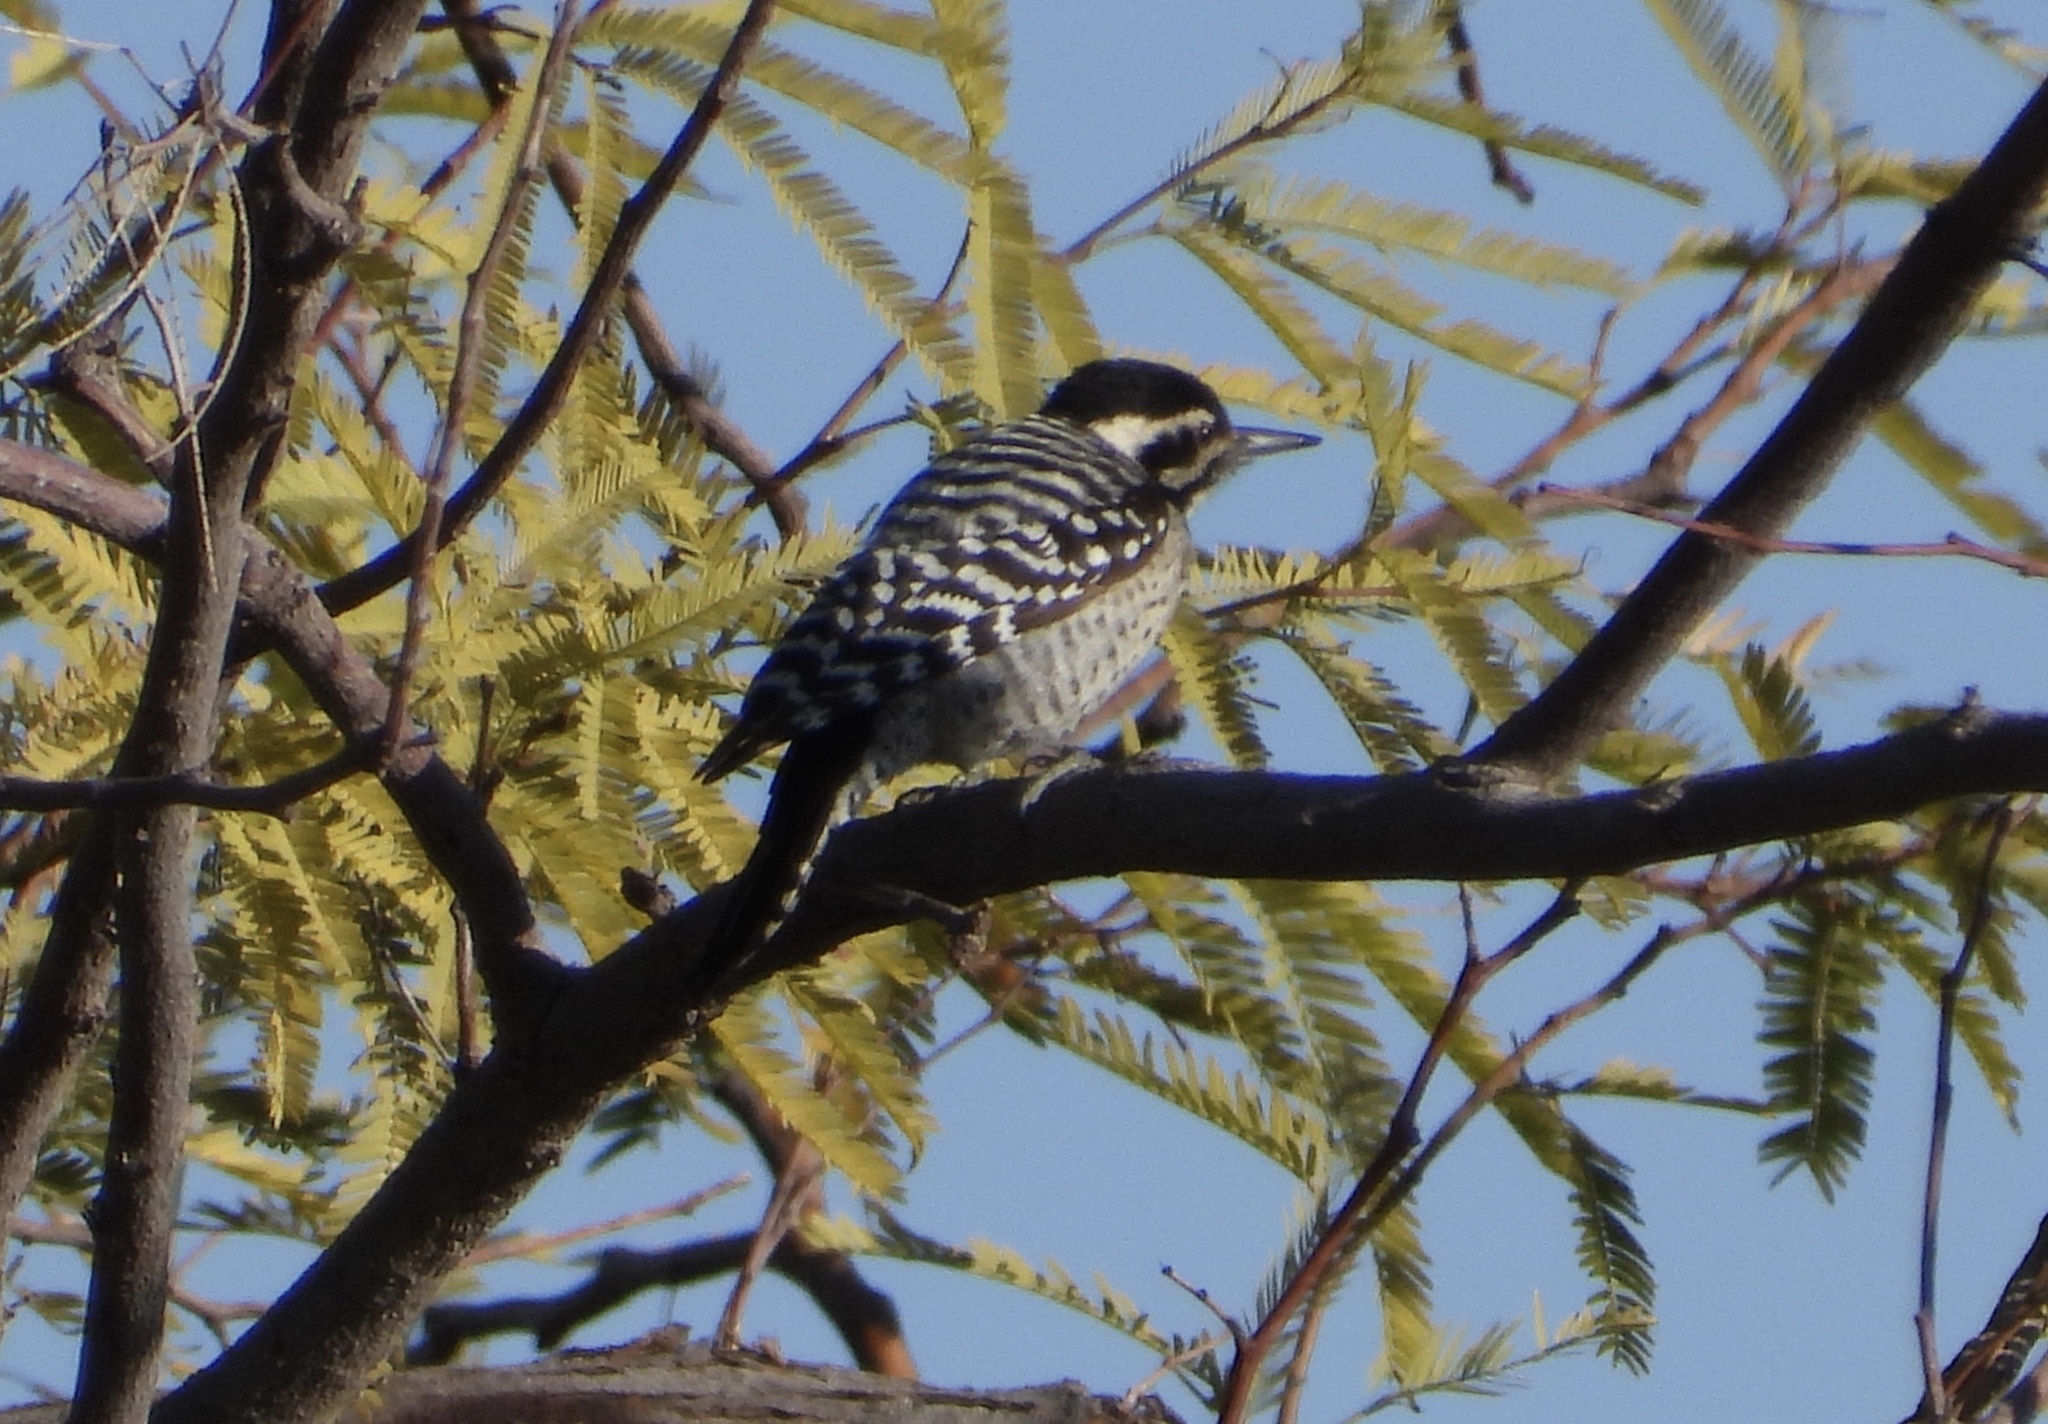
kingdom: Animalia
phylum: Chordata
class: Aves
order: Piciformes
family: Picidae
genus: Dryobates
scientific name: Dryobates scalaris
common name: Ladder-backed woodpecker
